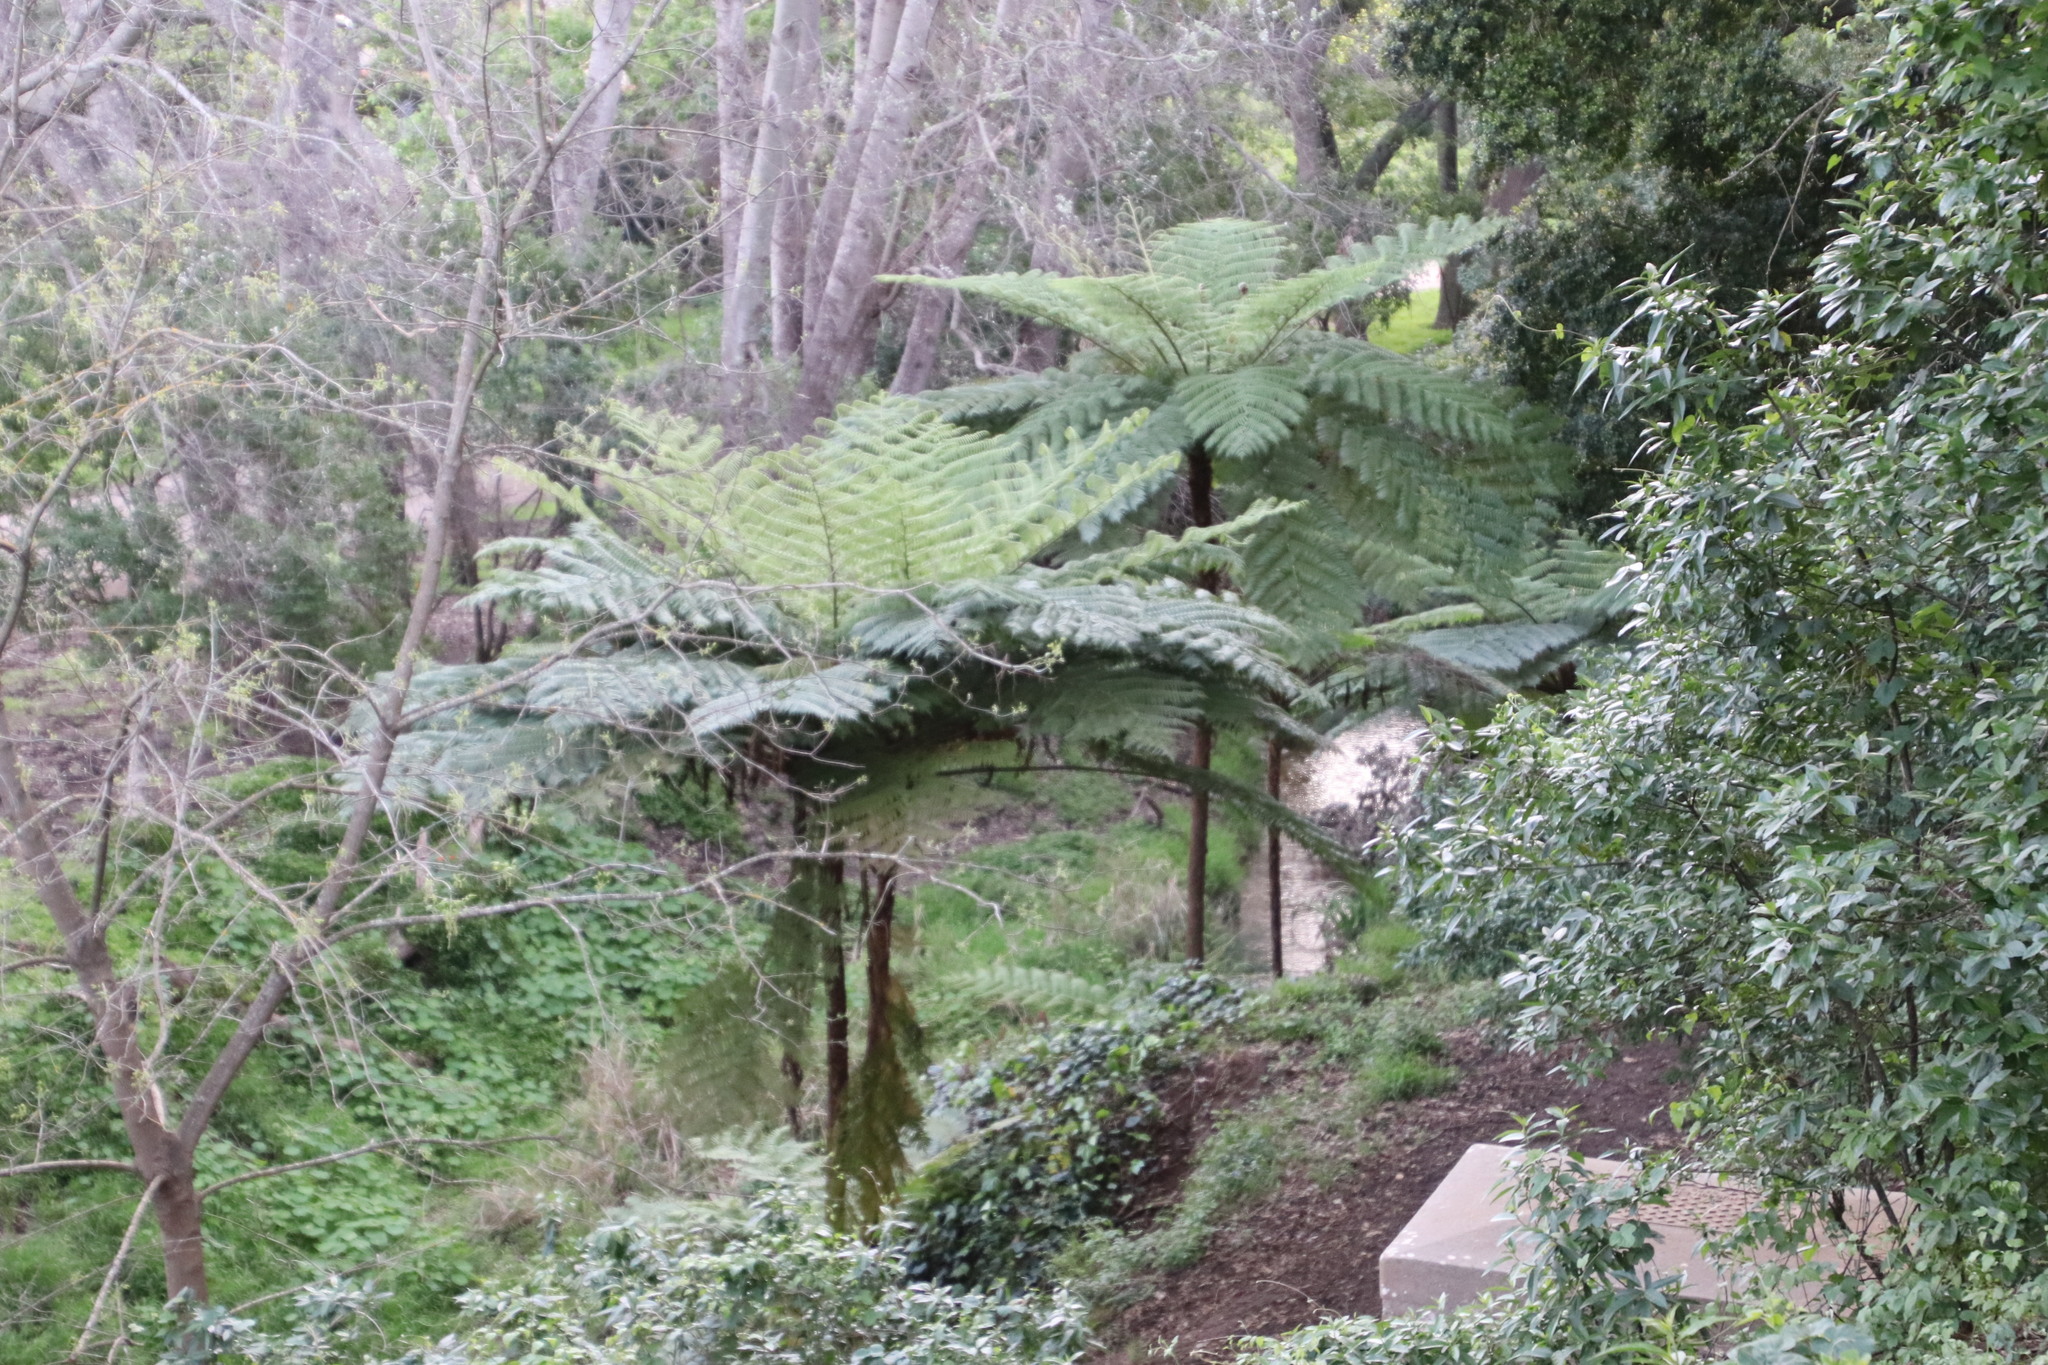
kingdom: Plantae
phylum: Tracheophyta
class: Polypodiopsida
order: Cyatheales
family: Cyatheaceae
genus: Sphaeropteris
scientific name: Sphaeropteris cooperi
